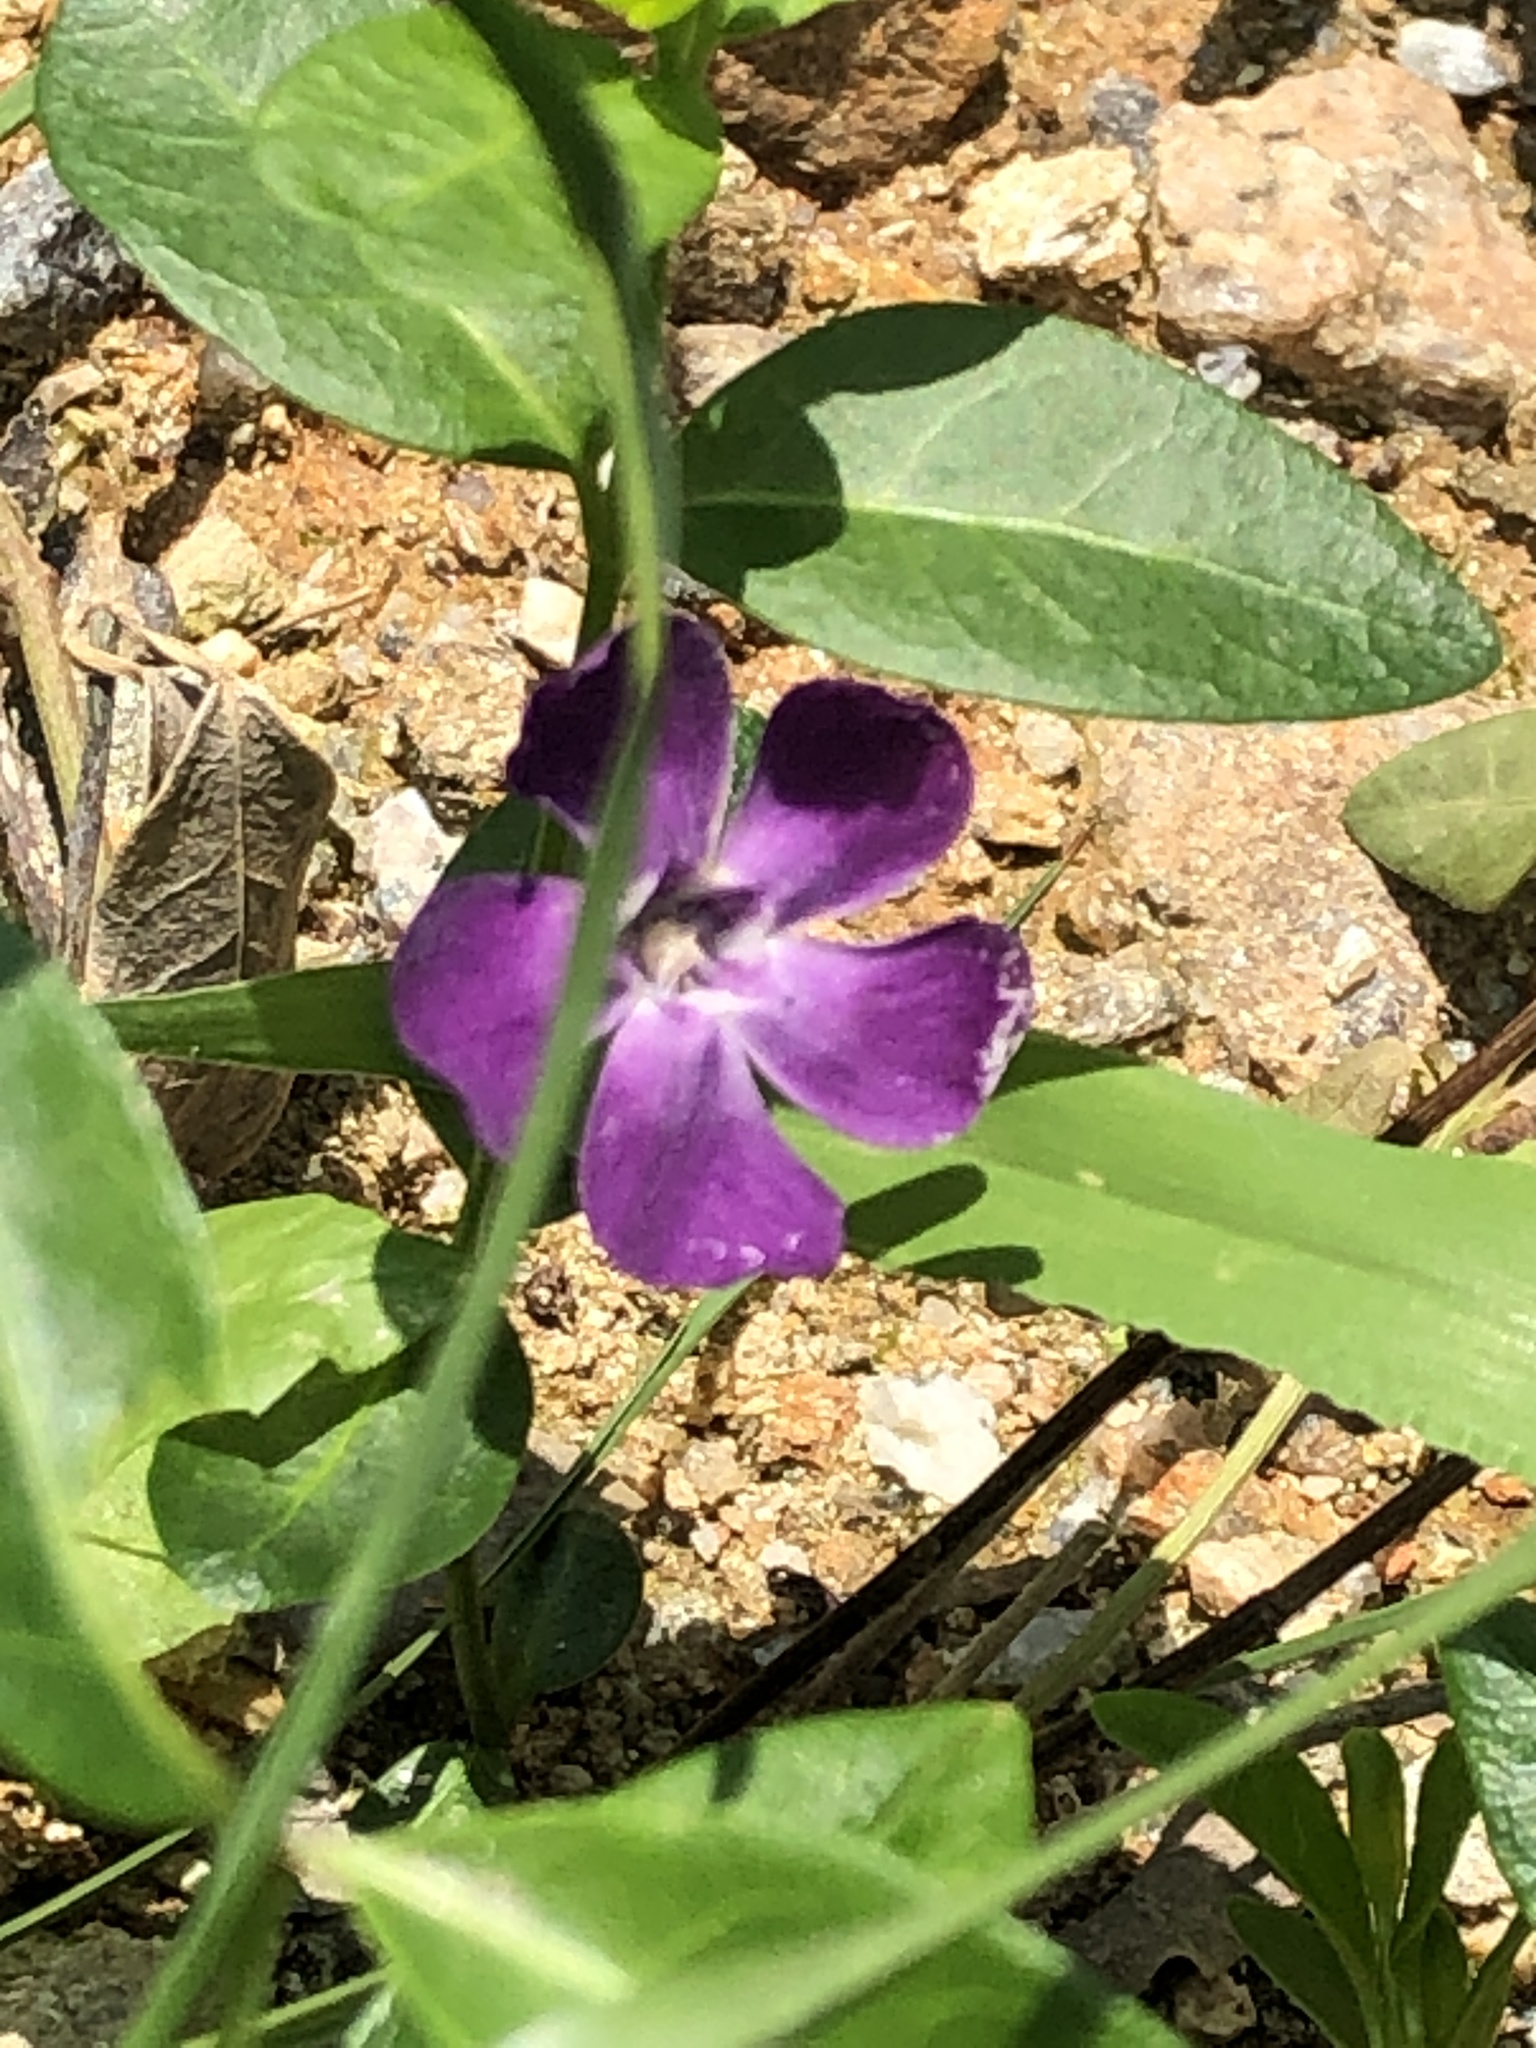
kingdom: Plantae
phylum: Tracheophyta
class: Magnoliopsida
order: Gentianales
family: Apocynaceae
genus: Vinca
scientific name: Vinca major
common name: Greater periwinkle
